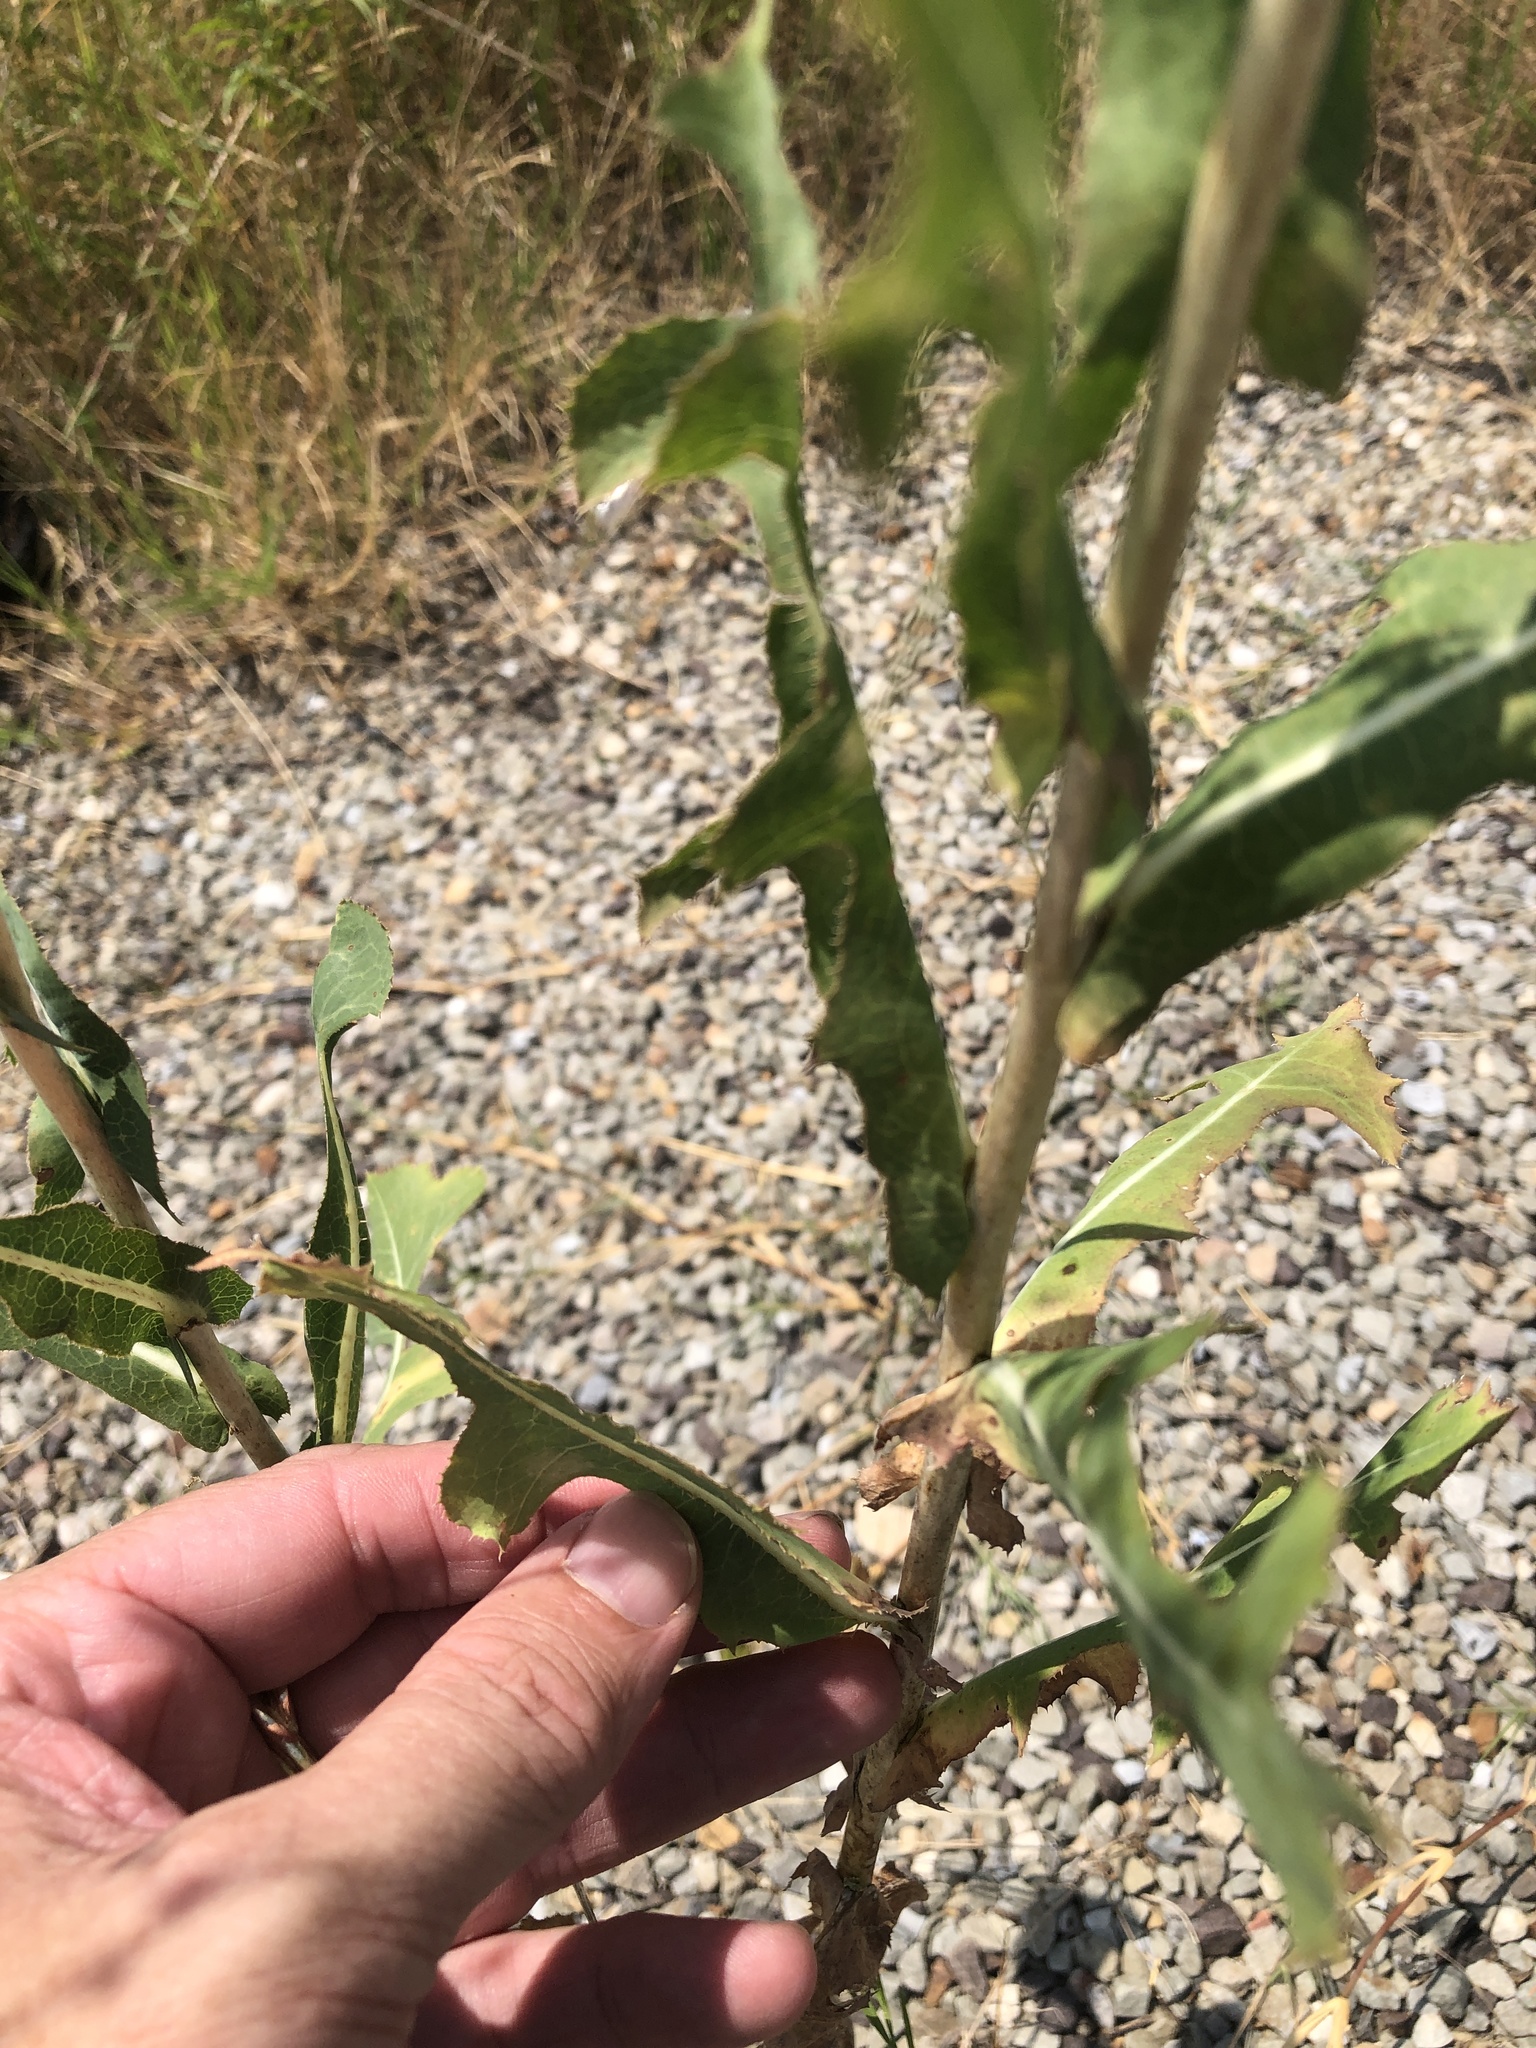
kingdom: Plantae
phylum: Tracheophyta
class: Magnoliopsida
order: Asterales
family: Asteraceae
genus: Lactuca
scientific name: Lactuca serriola
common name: Prickly lettuce
